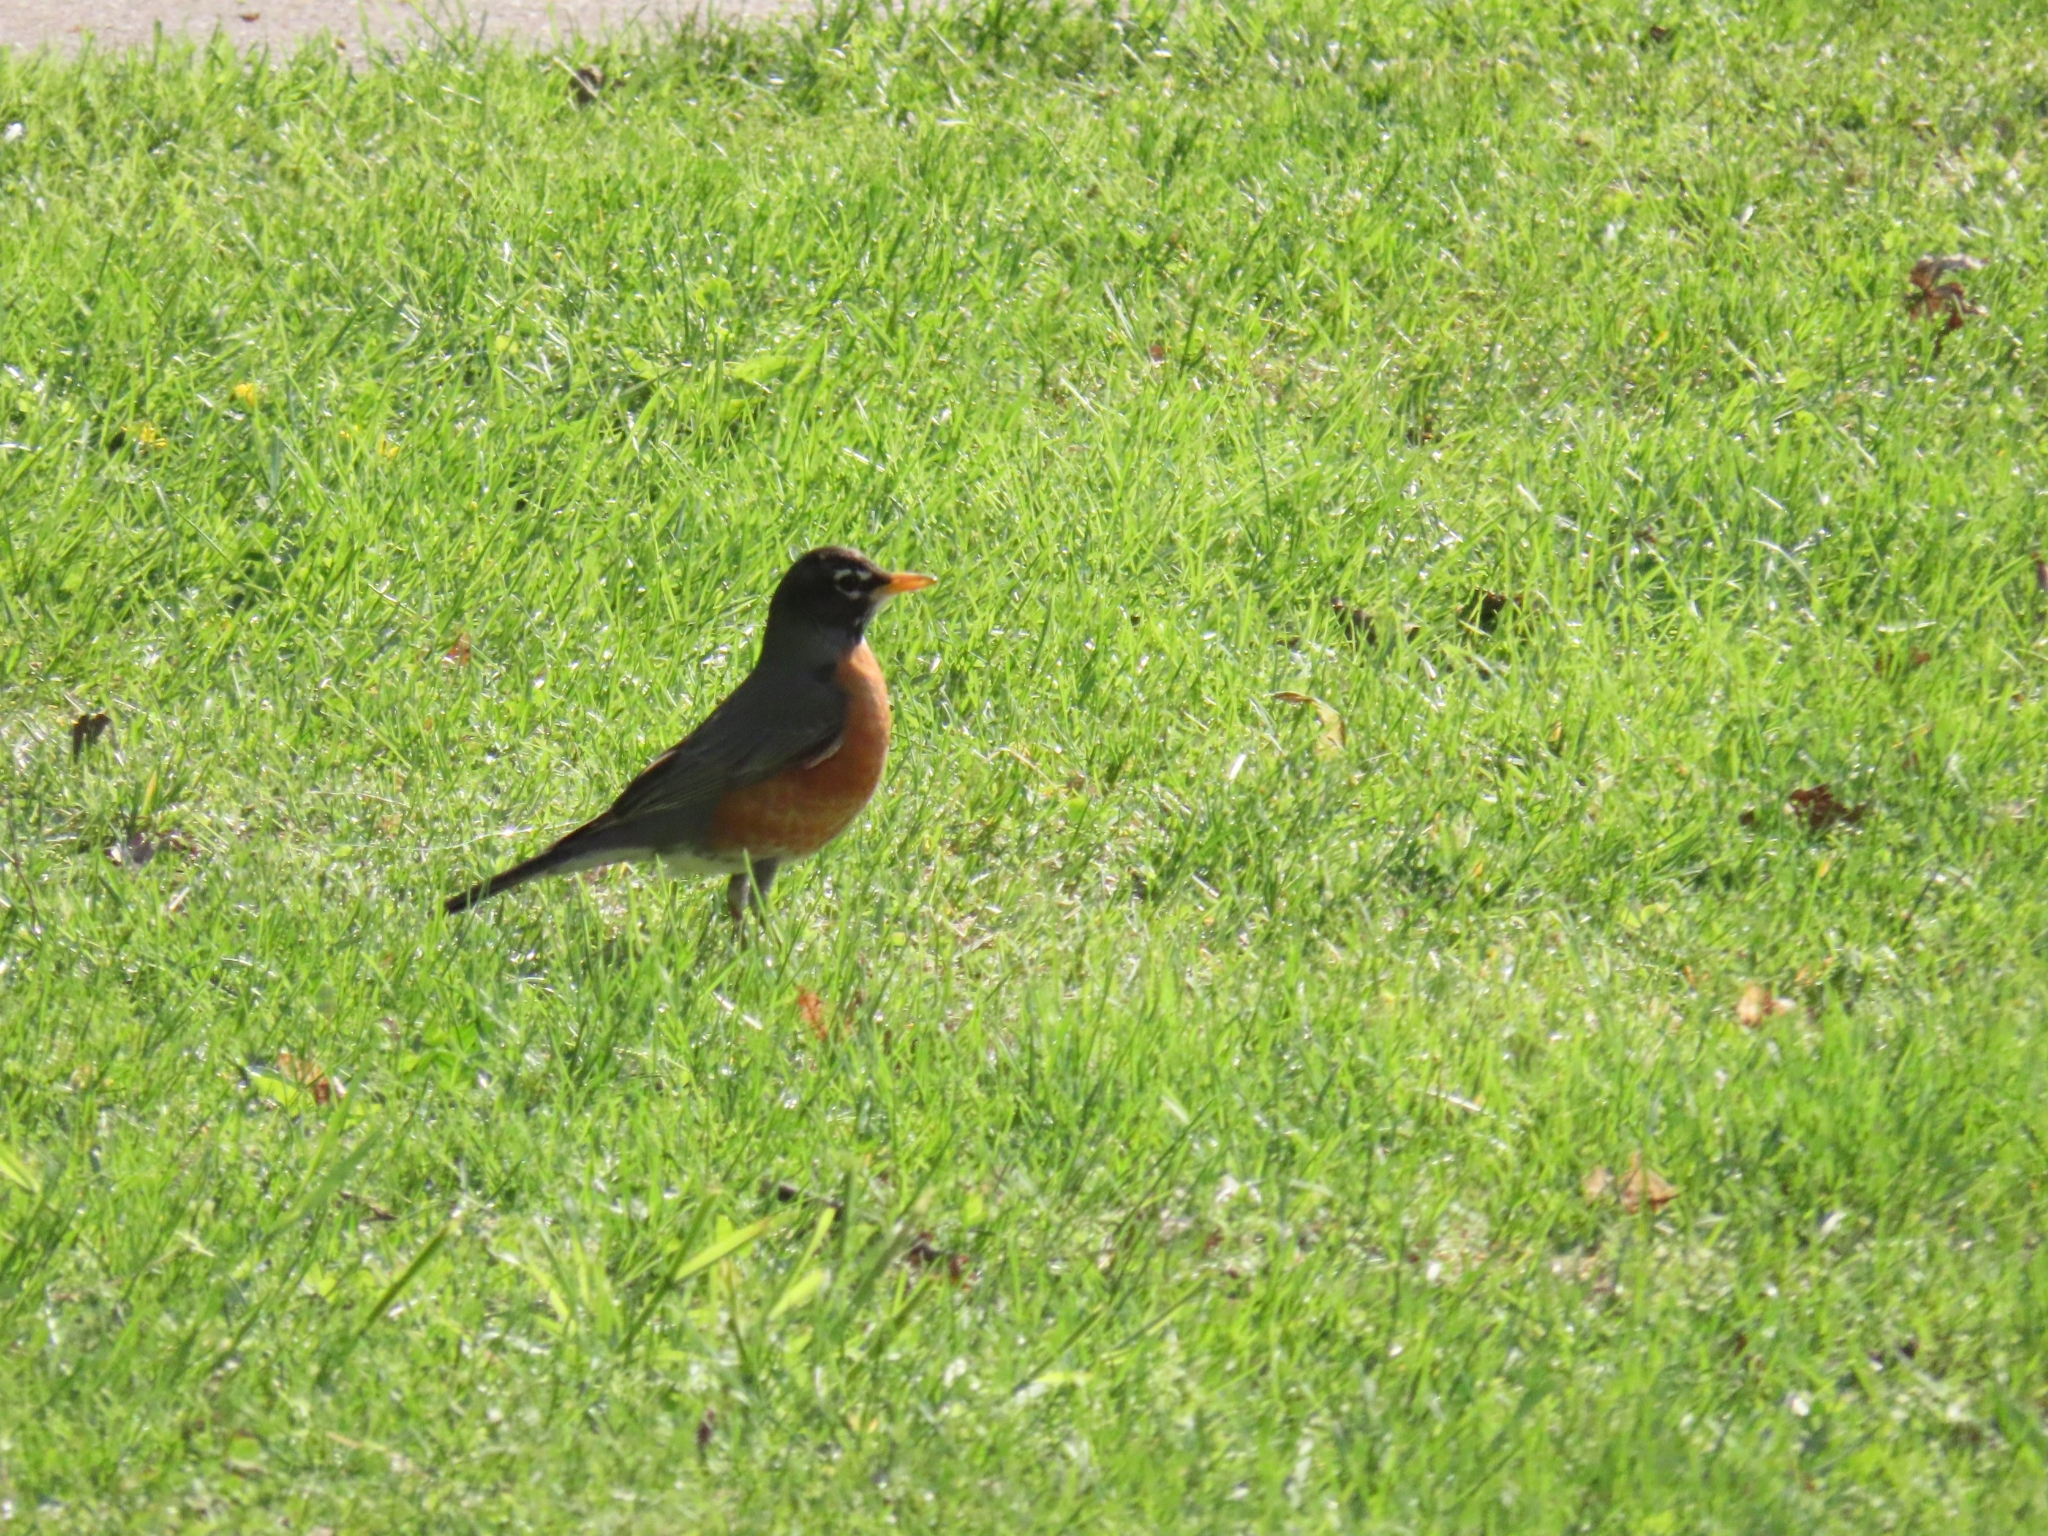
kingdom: Animalia
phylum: Chordata
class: Aves
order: Passeriformes
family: Turdidae
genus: Turdus
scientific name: Turdus migratorius
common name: American robin
